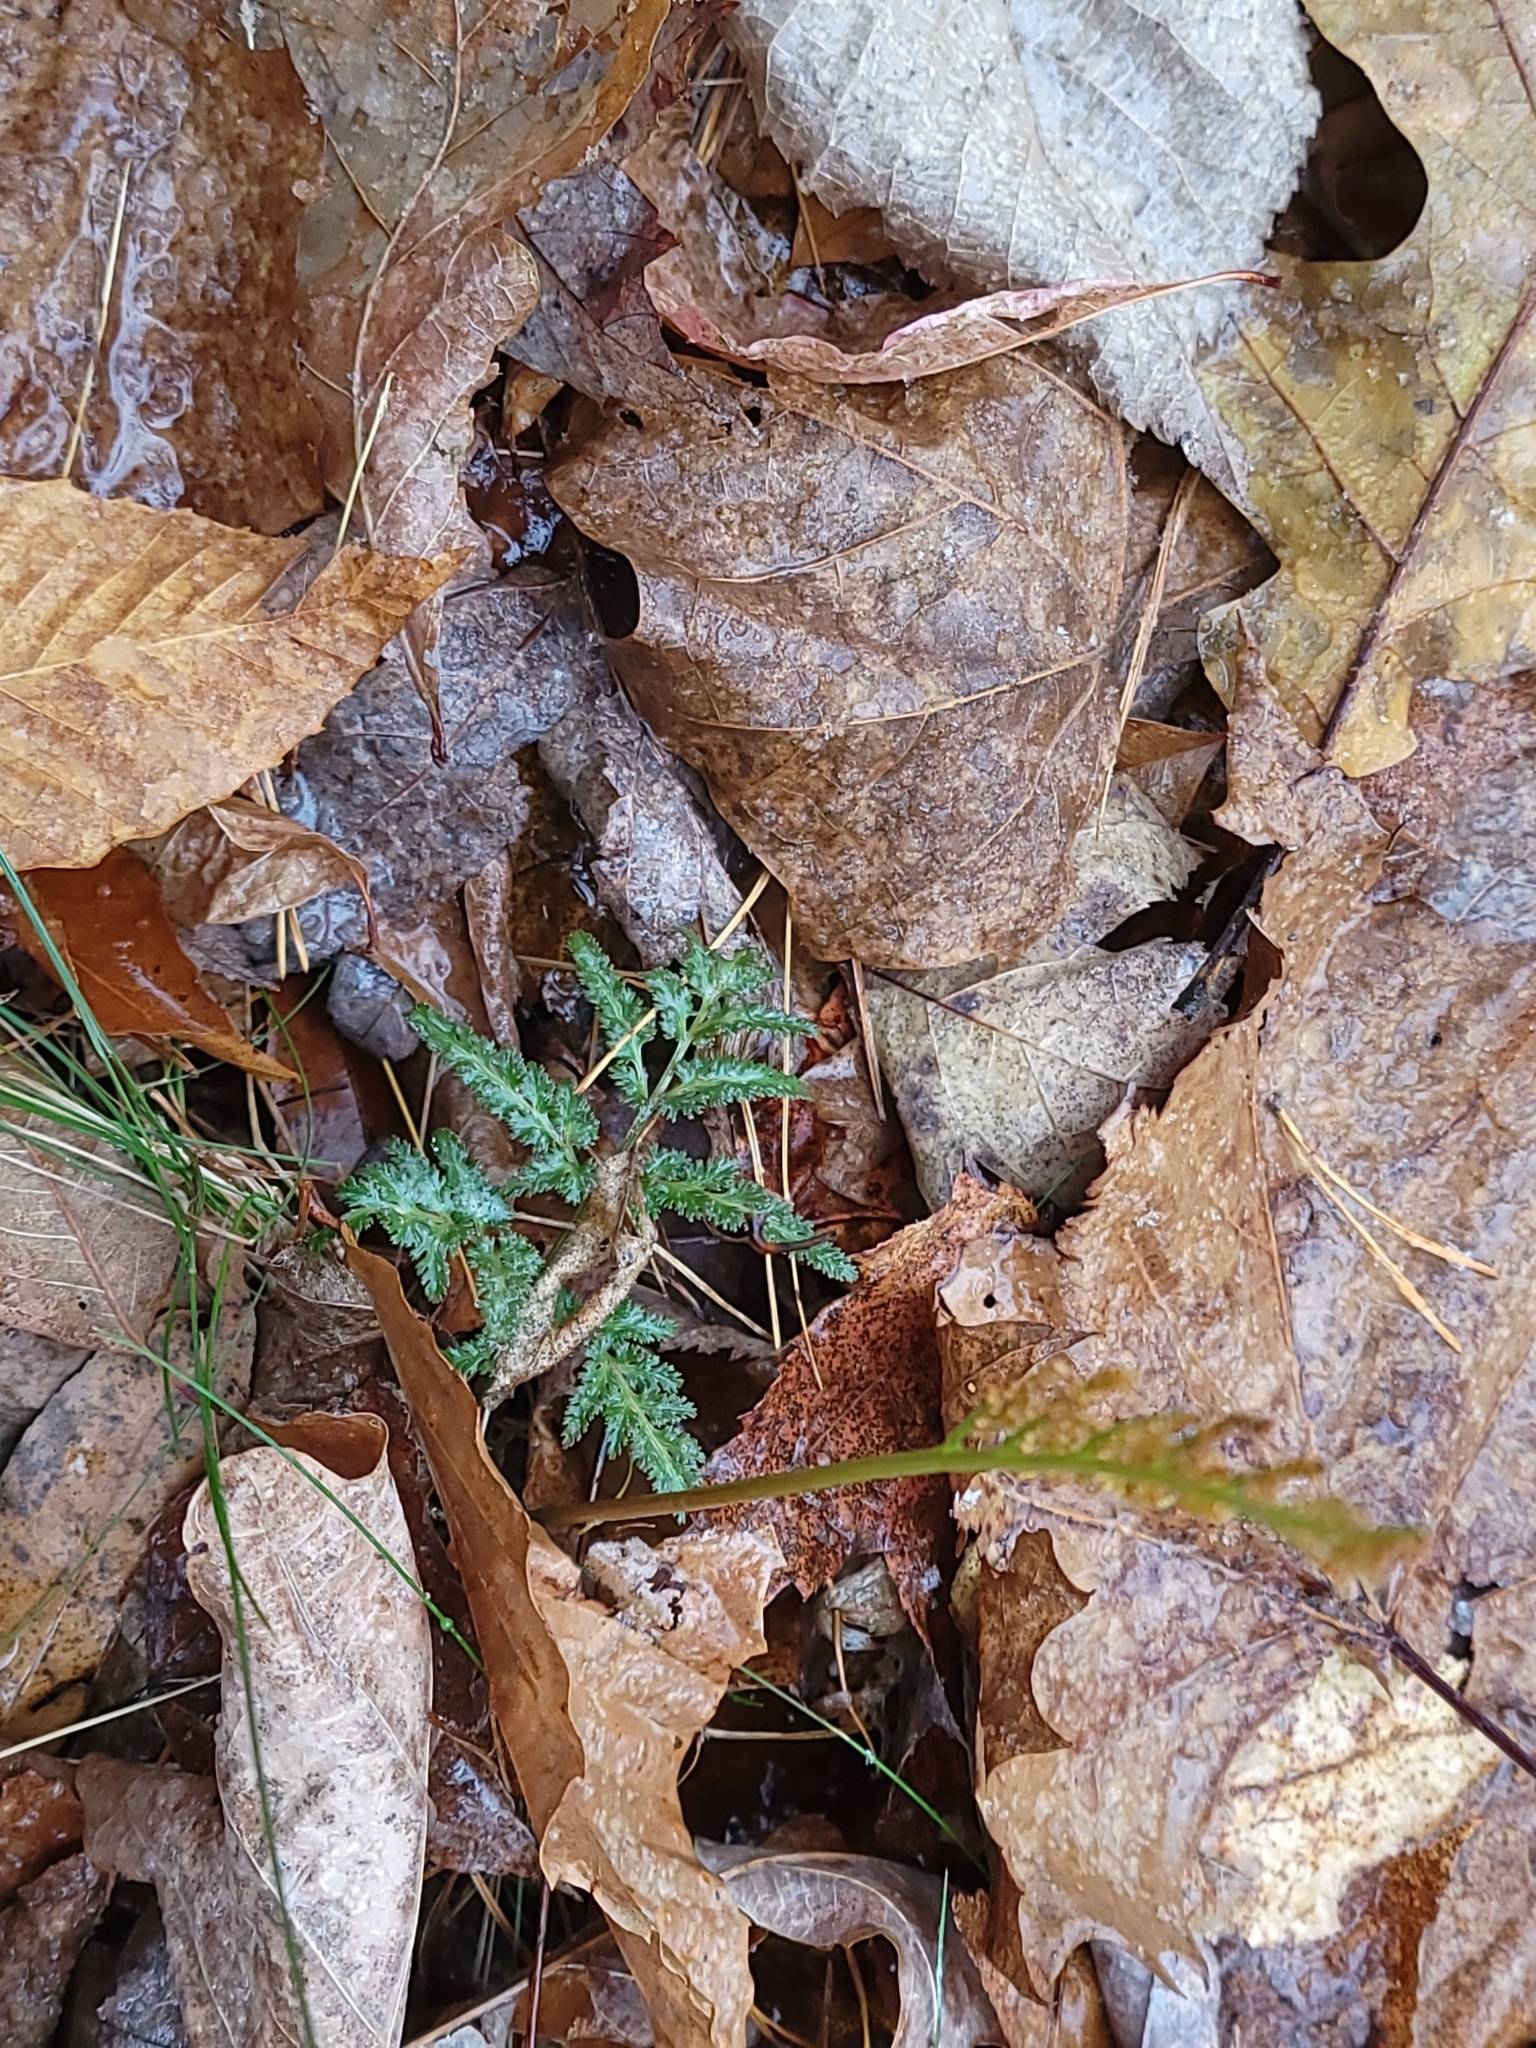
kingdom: Plantae
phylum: Tracheophyta
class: Polypodiopsida
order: Ophioglossales
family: Ophioglossaceae
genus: Sceptridium
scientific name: Sceptridium dissectum
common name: Cut-leaved grapefern
